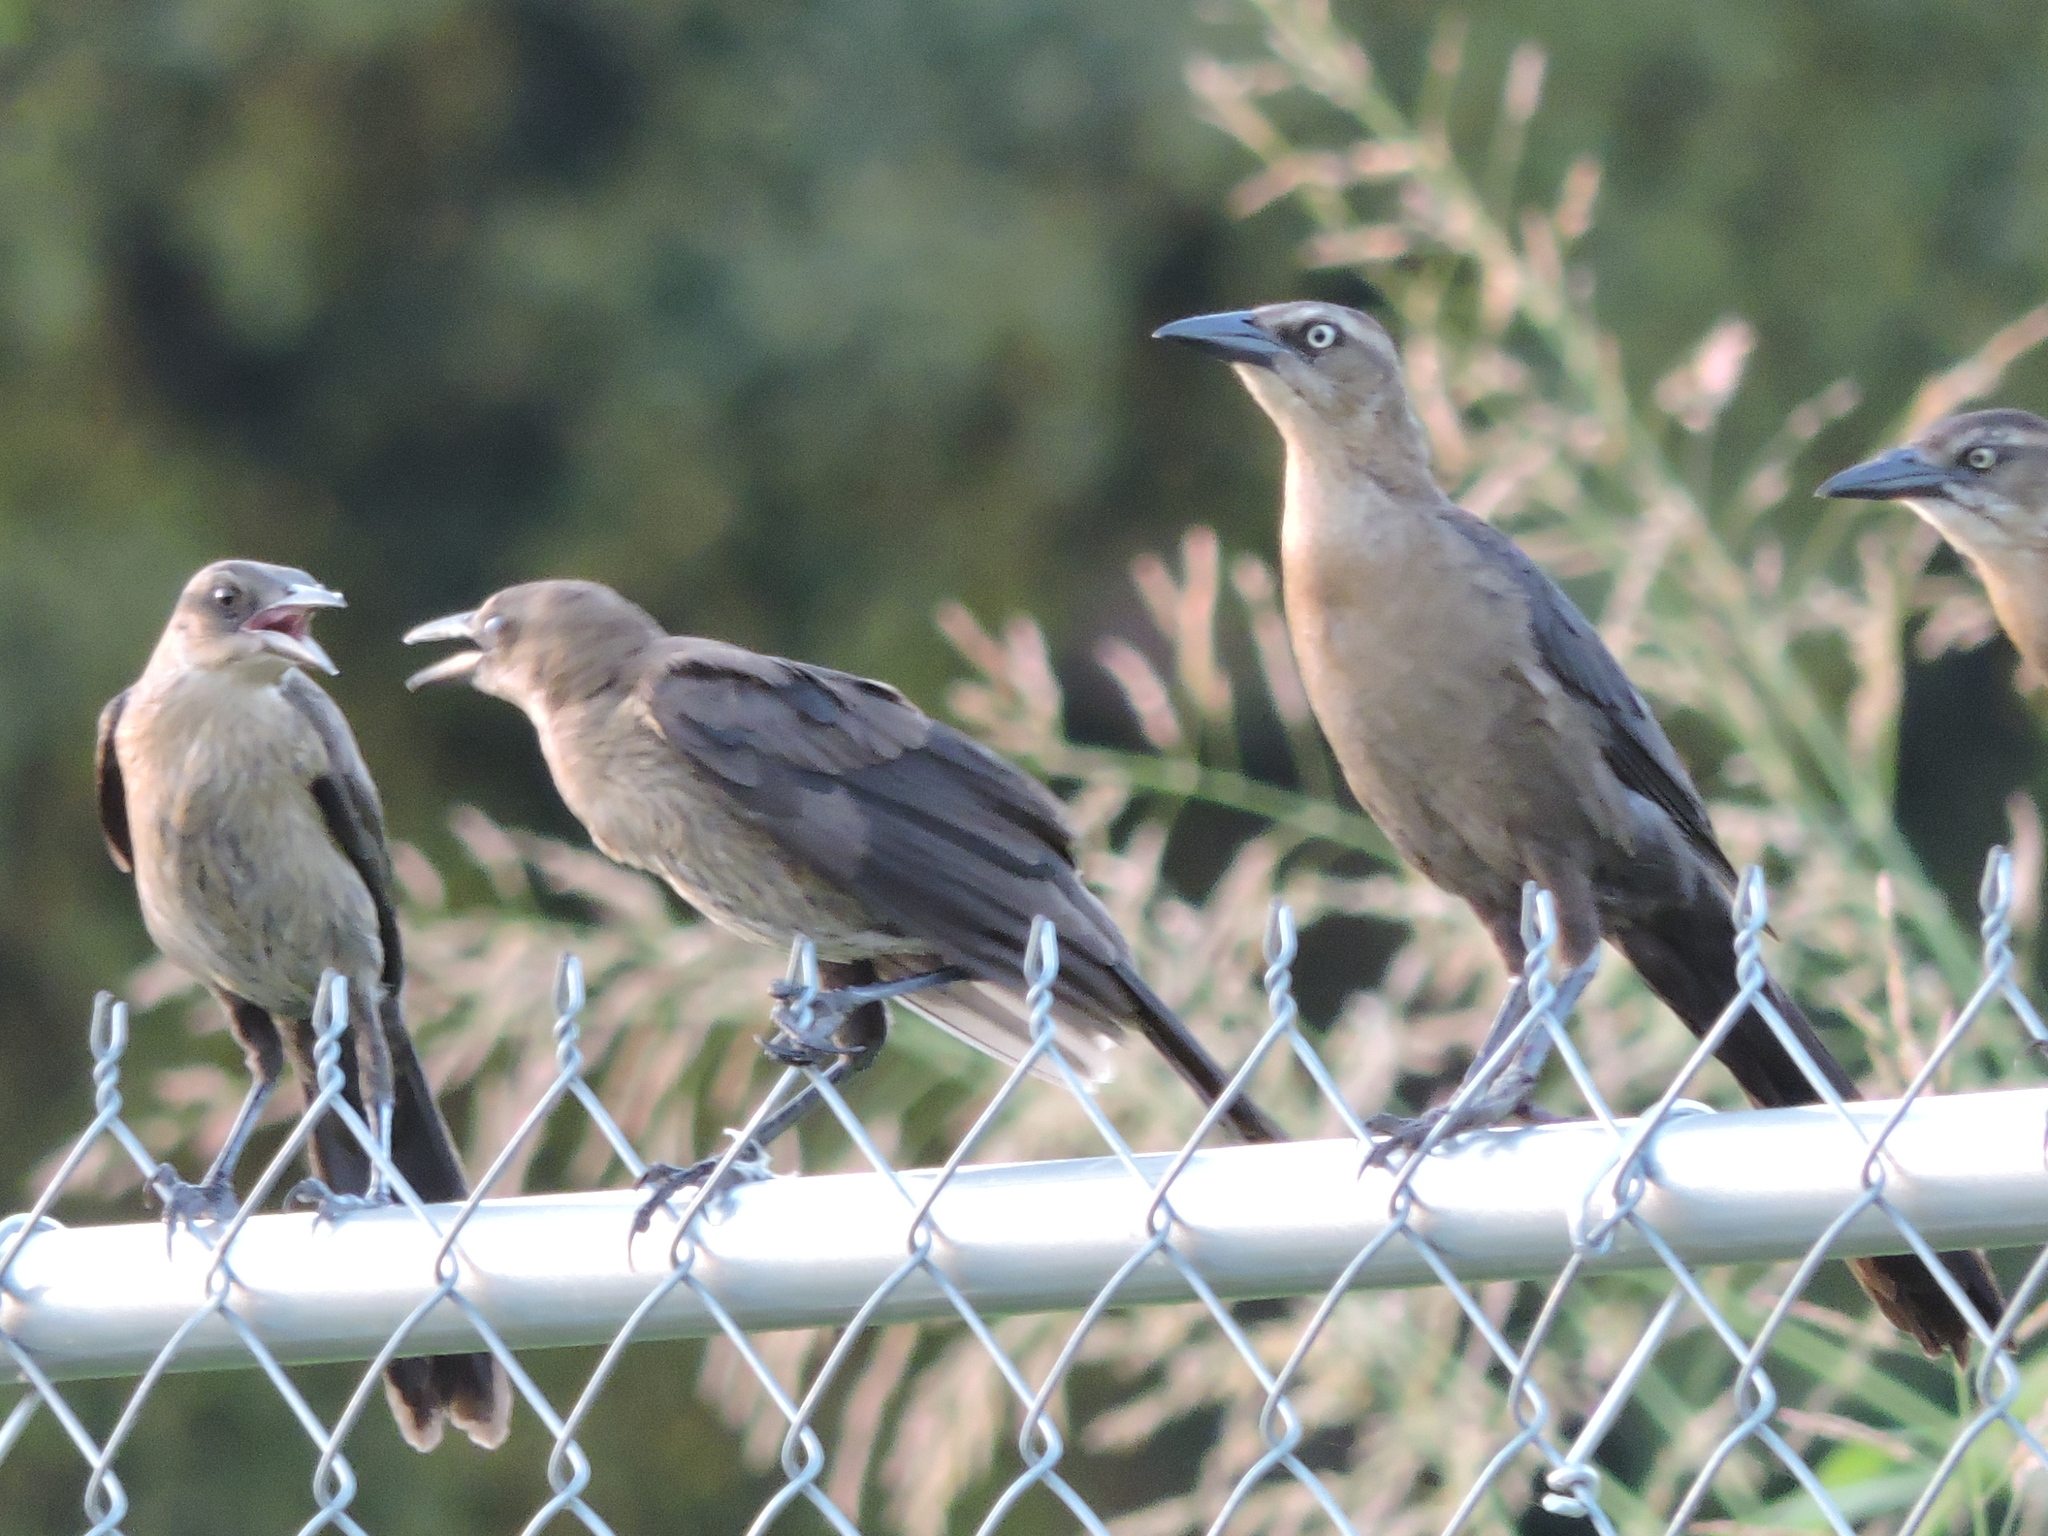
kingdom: Animalia
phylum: Chordata
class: Aves
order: Passeriformes
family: Icteridae
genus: Quiscalus
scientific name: Quiscalus mexicanus
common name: Great-tailed grackle
